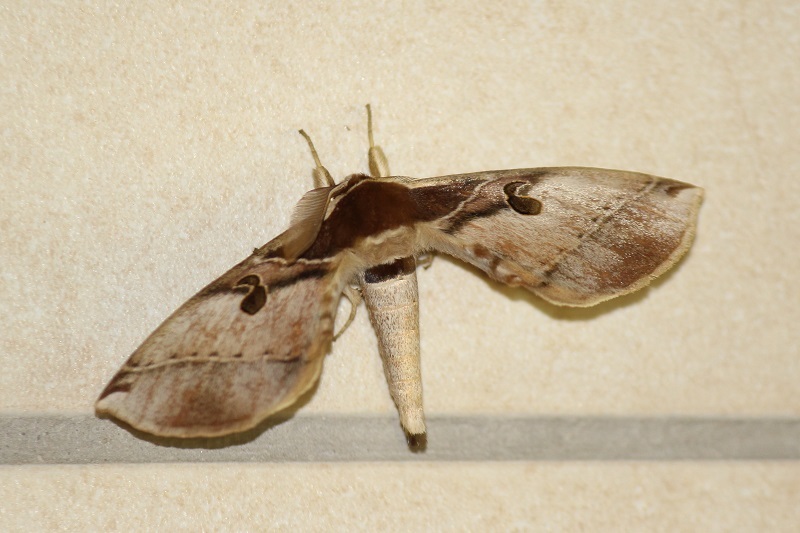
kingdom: Animalia
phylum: Arthropoda
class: Insecta
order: Lepidoptera
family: Brahmaeidae
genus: Spiramiopsis
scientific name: Spiramiopsis comma
